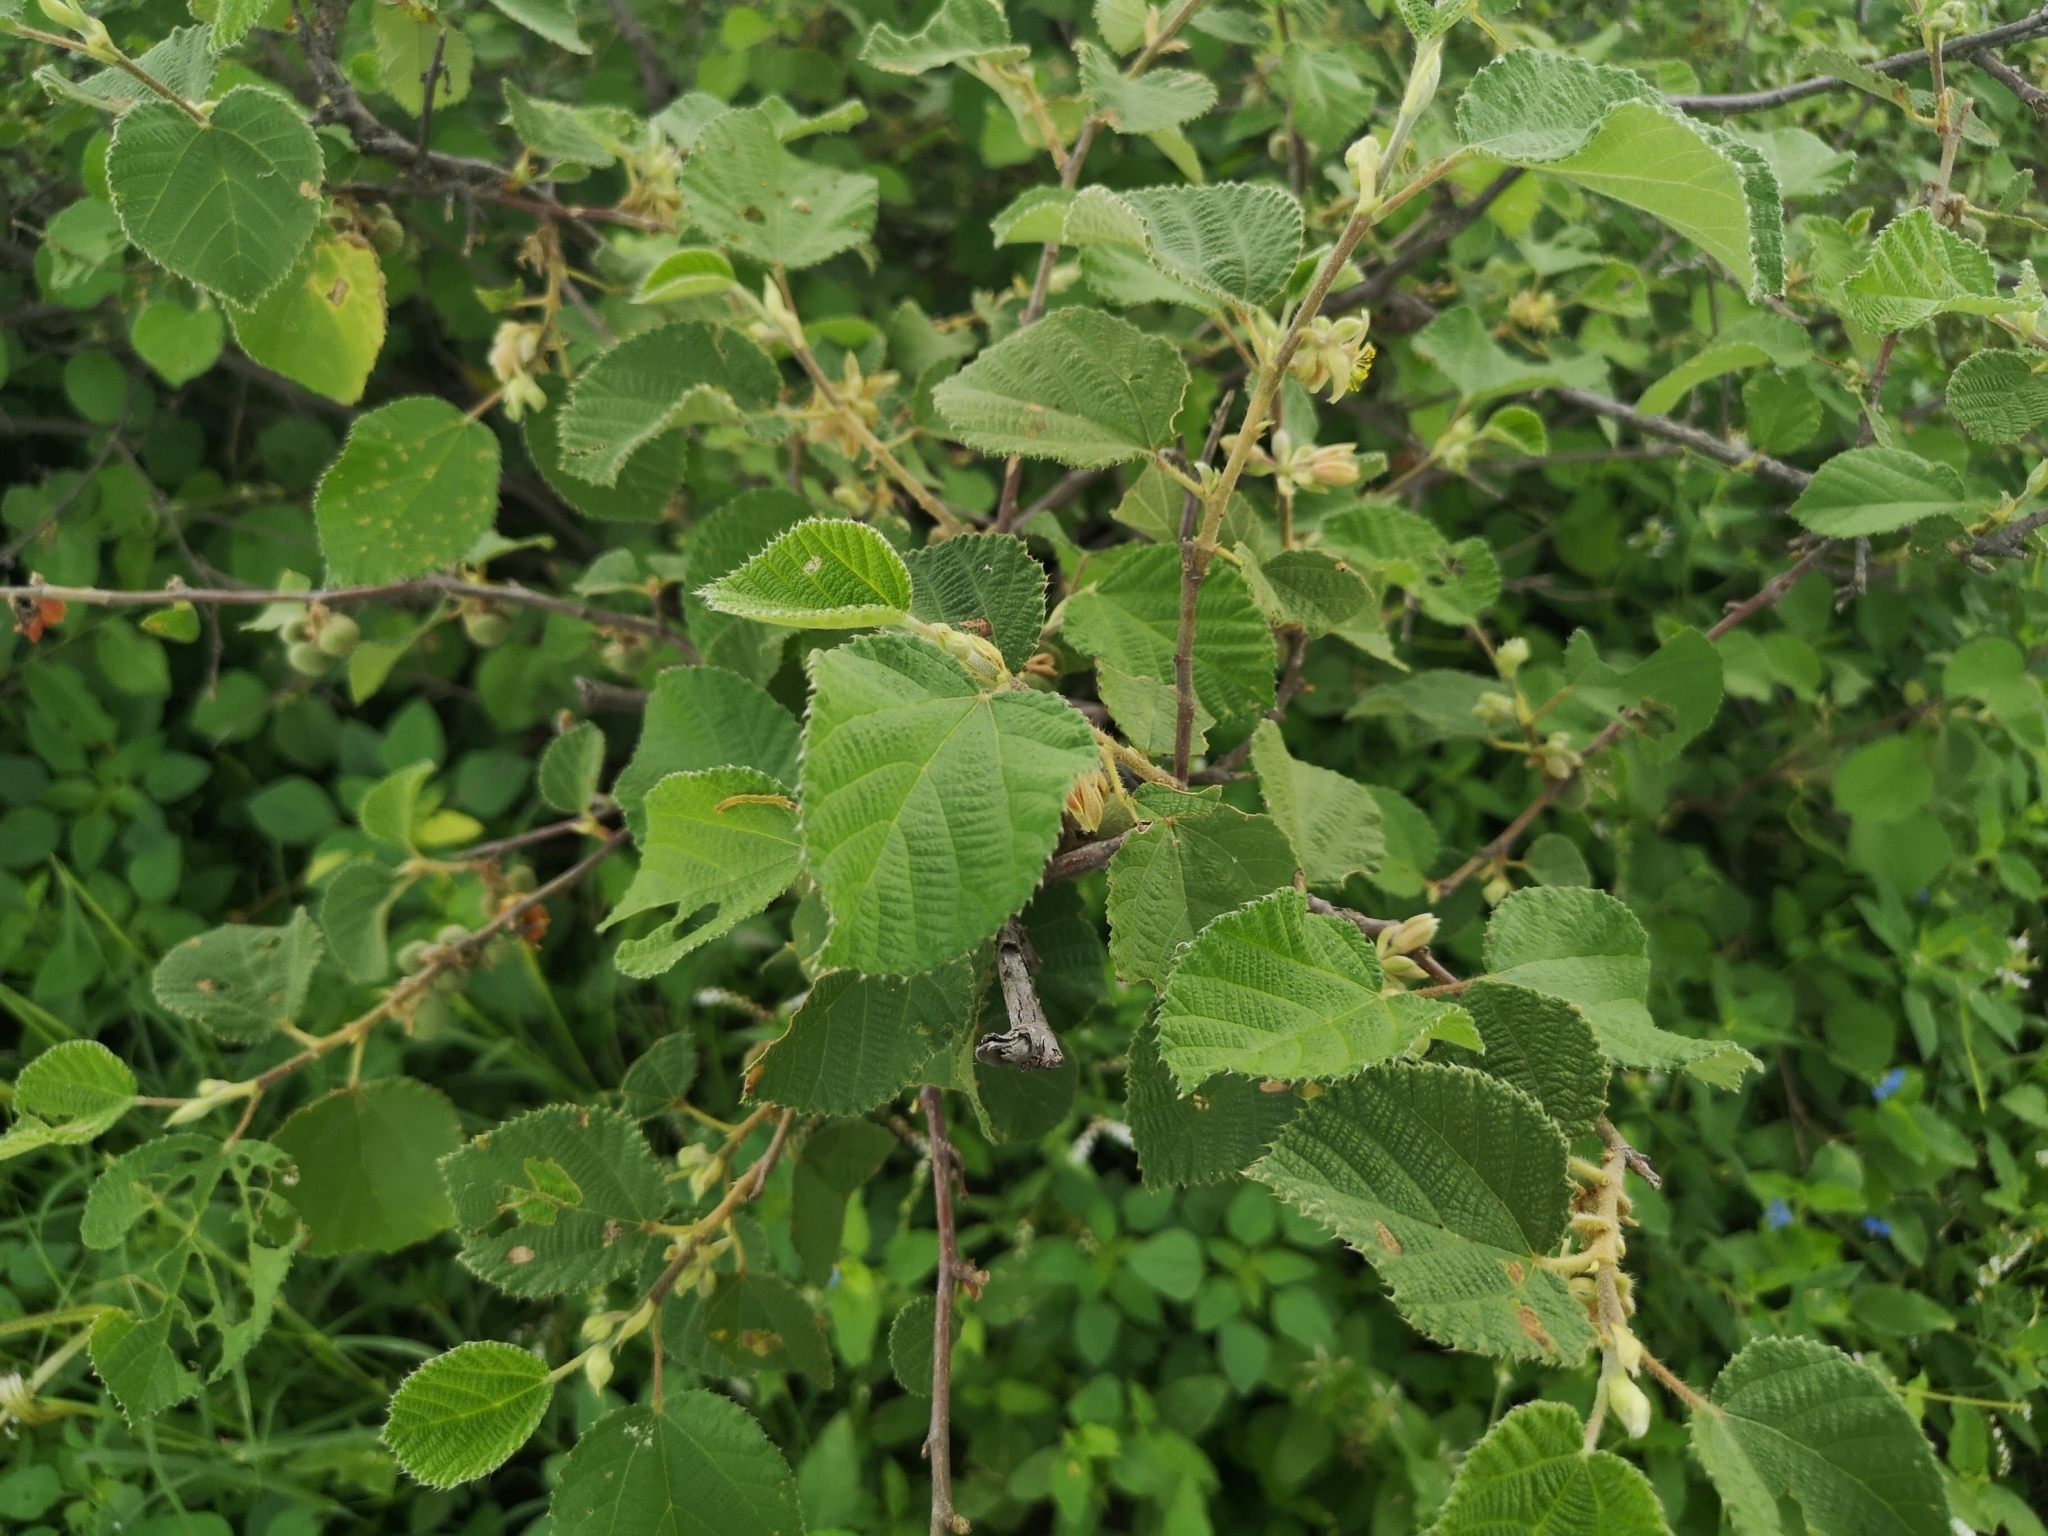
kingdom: Plantae
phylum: Tracheophyta
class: Magnoliopsida
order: Malvales
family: Malvaceae
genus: Grewia
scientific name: Grewia villosa
